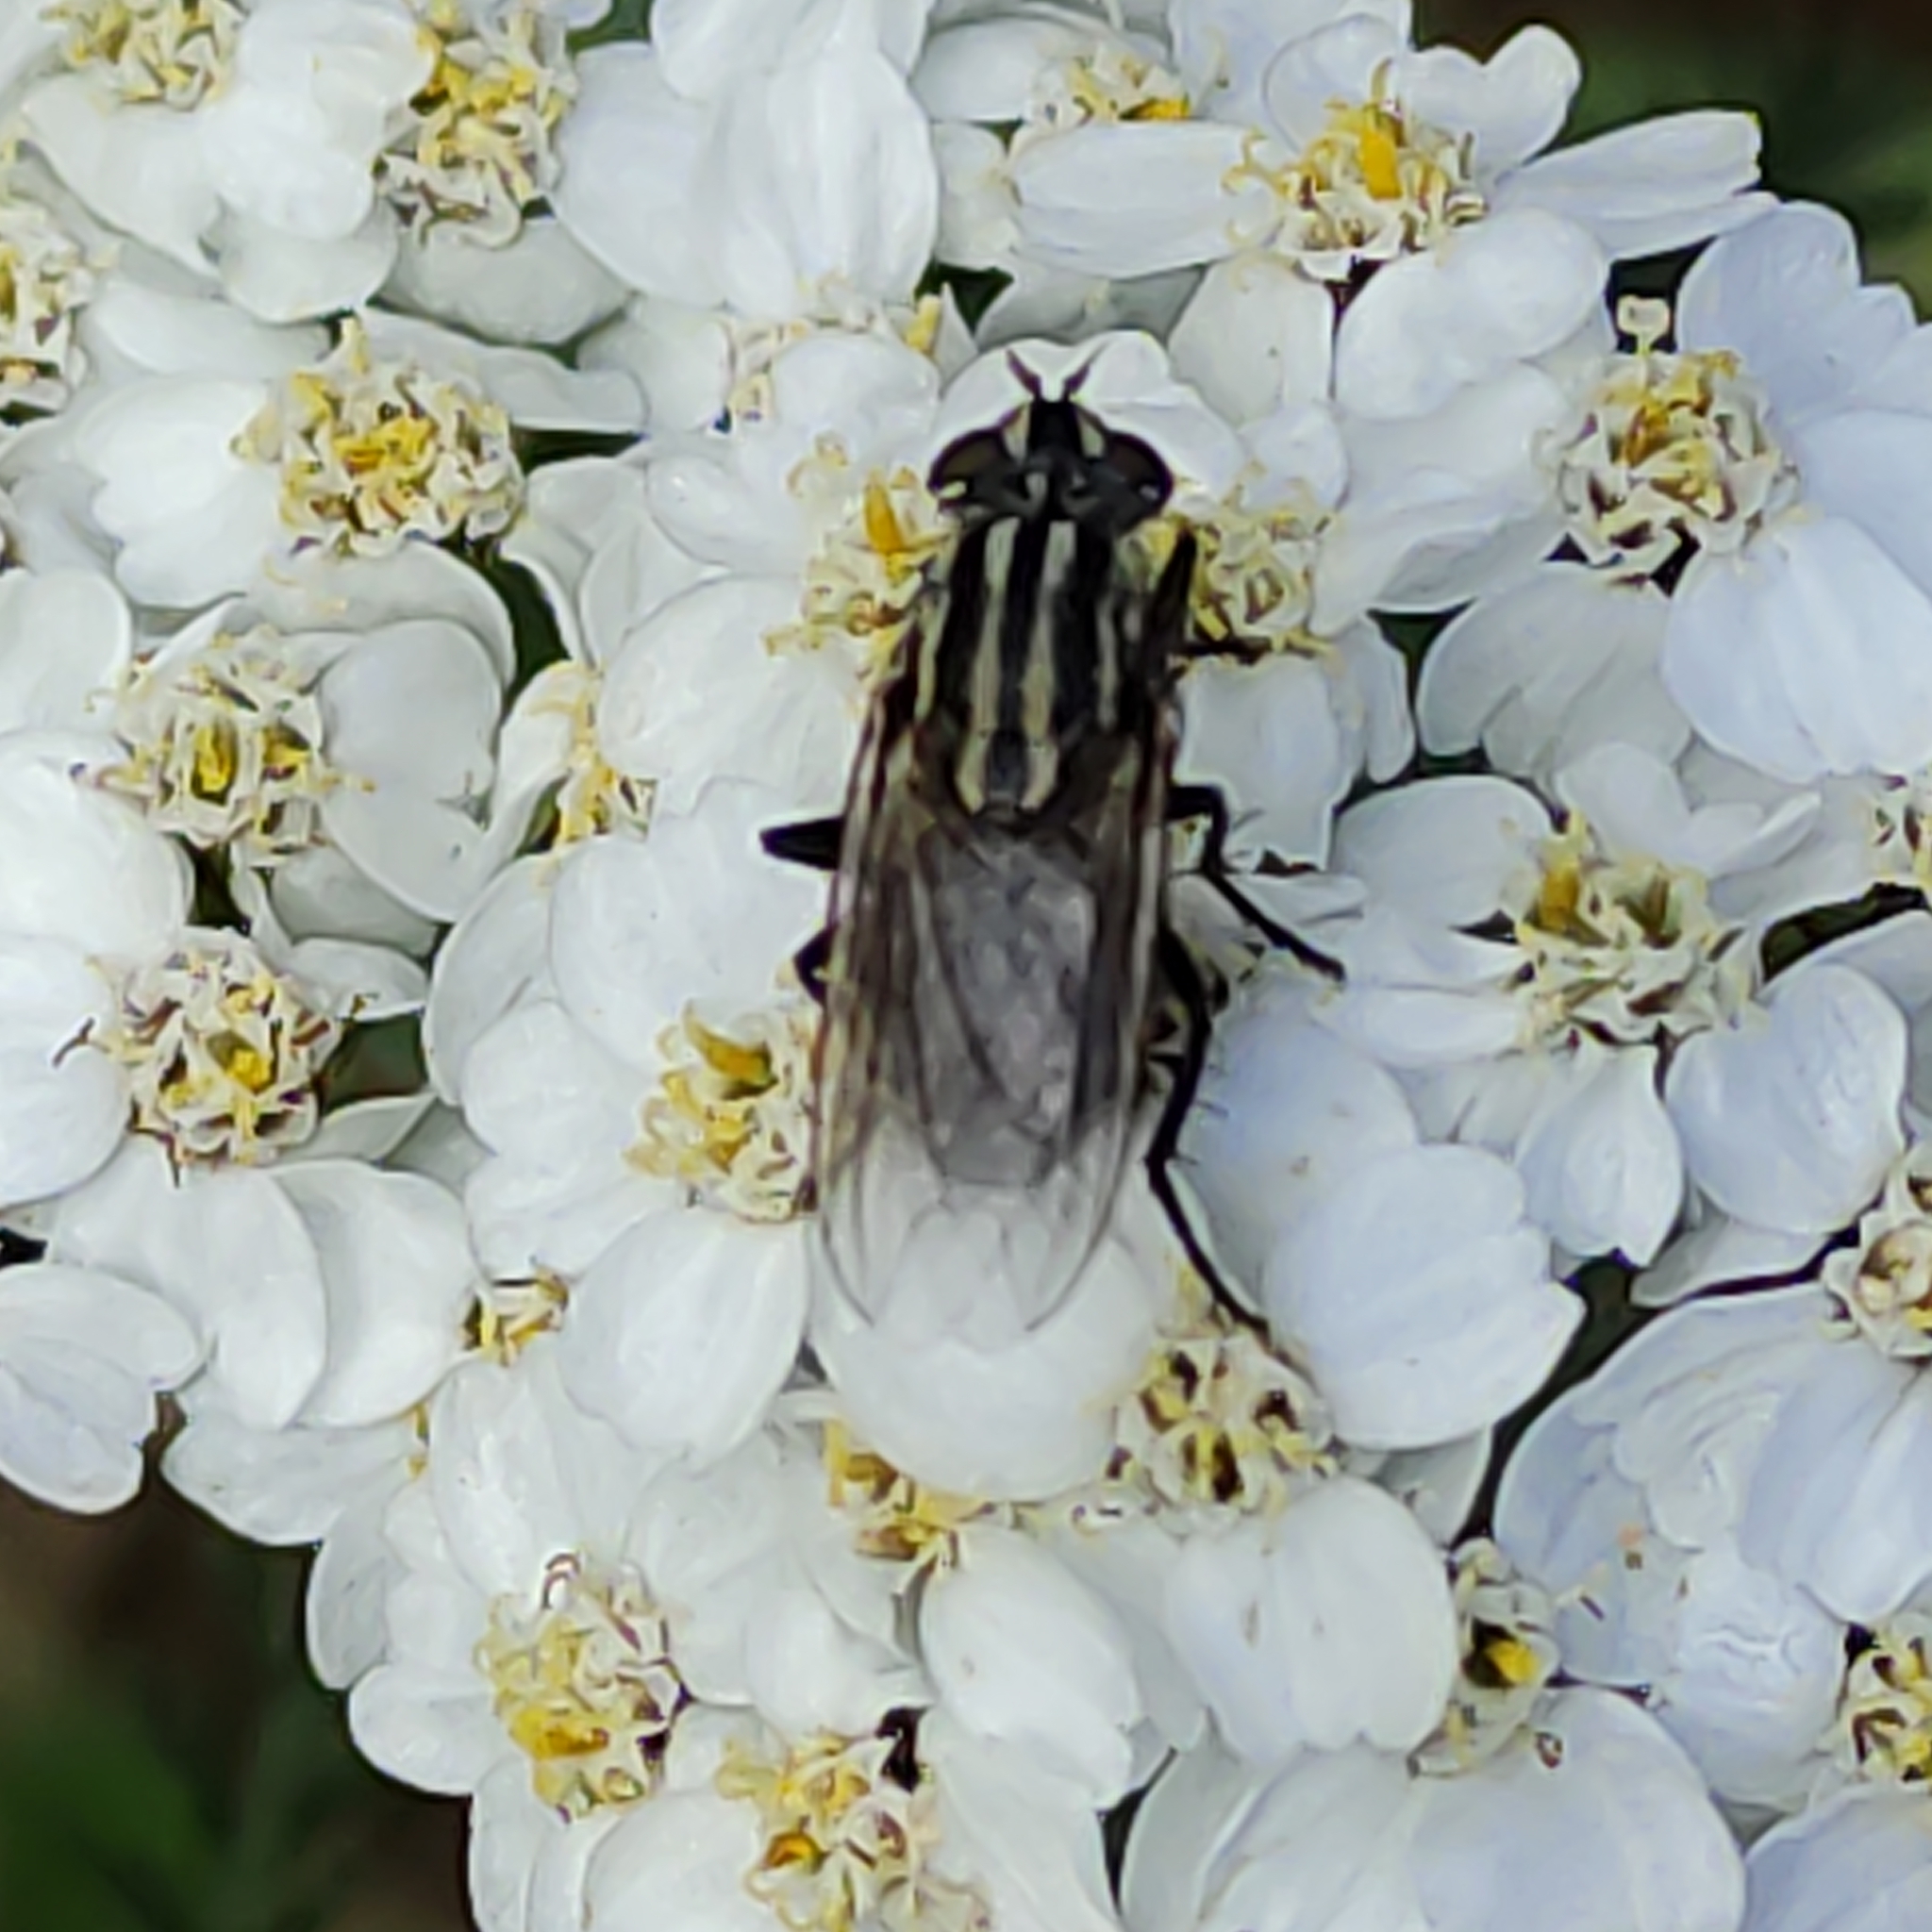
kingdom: Animalia
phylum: Arthropoda
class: Insecta
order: Diptera
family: Sarcophagidae
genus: Oxysarcodexia
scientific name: Oxysarcodexia varia
